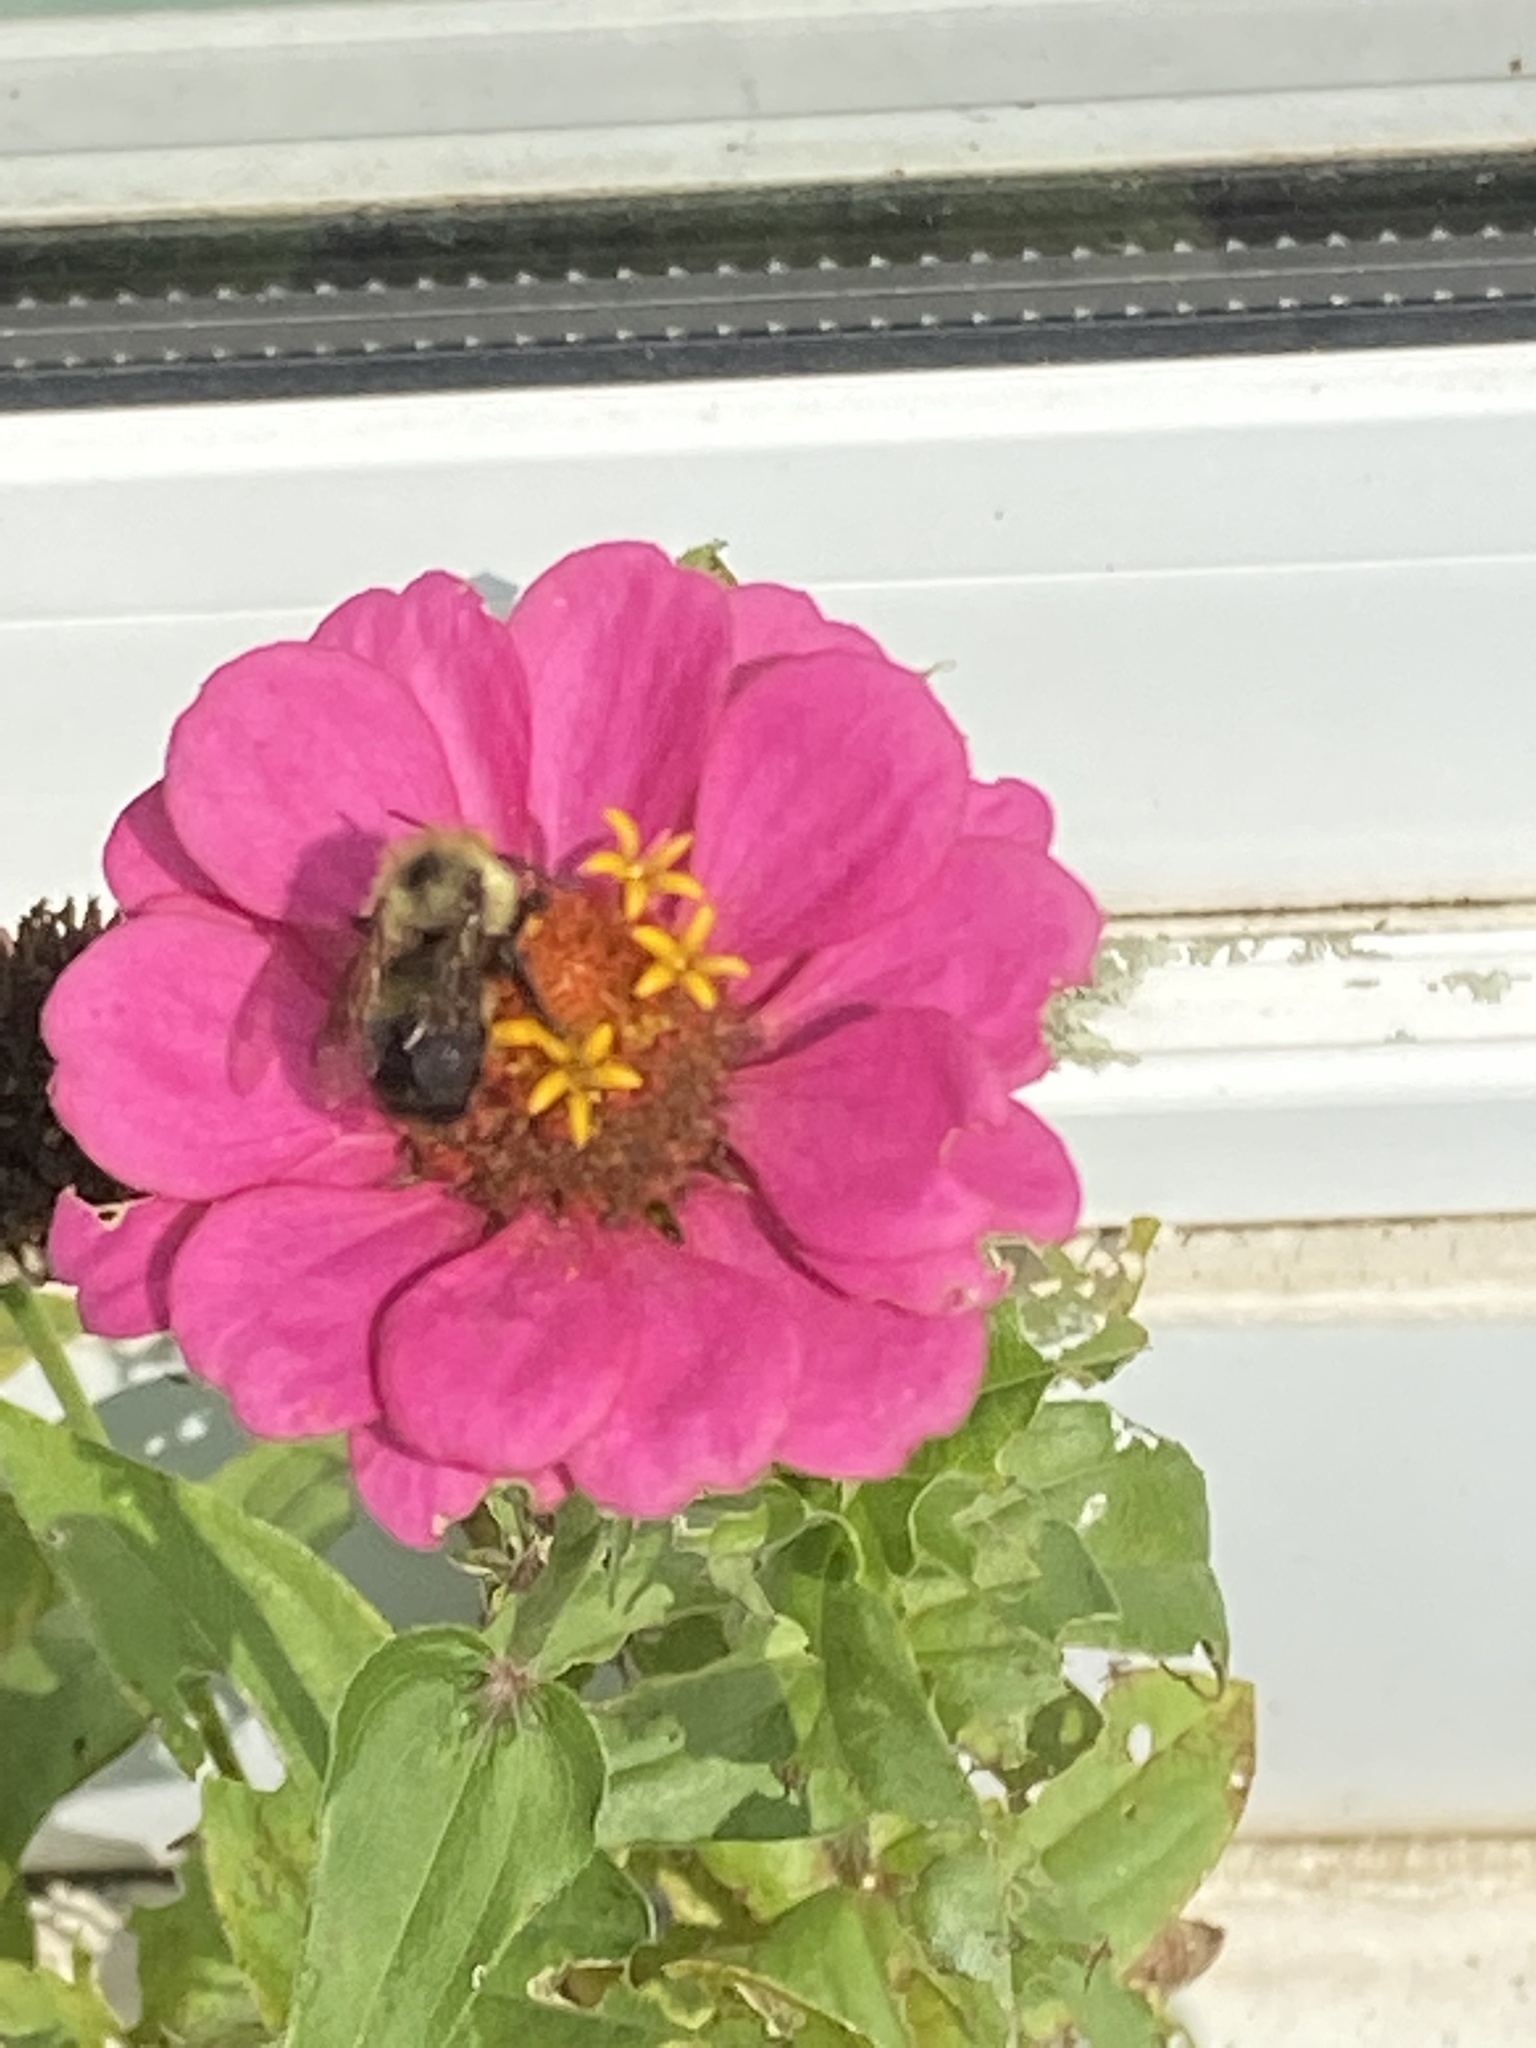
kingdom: Animalia
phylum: Arthropoda
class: Insecta
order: Hymenoptera
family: Apidae
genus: Pyrobombus
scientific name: Pyrobombus
